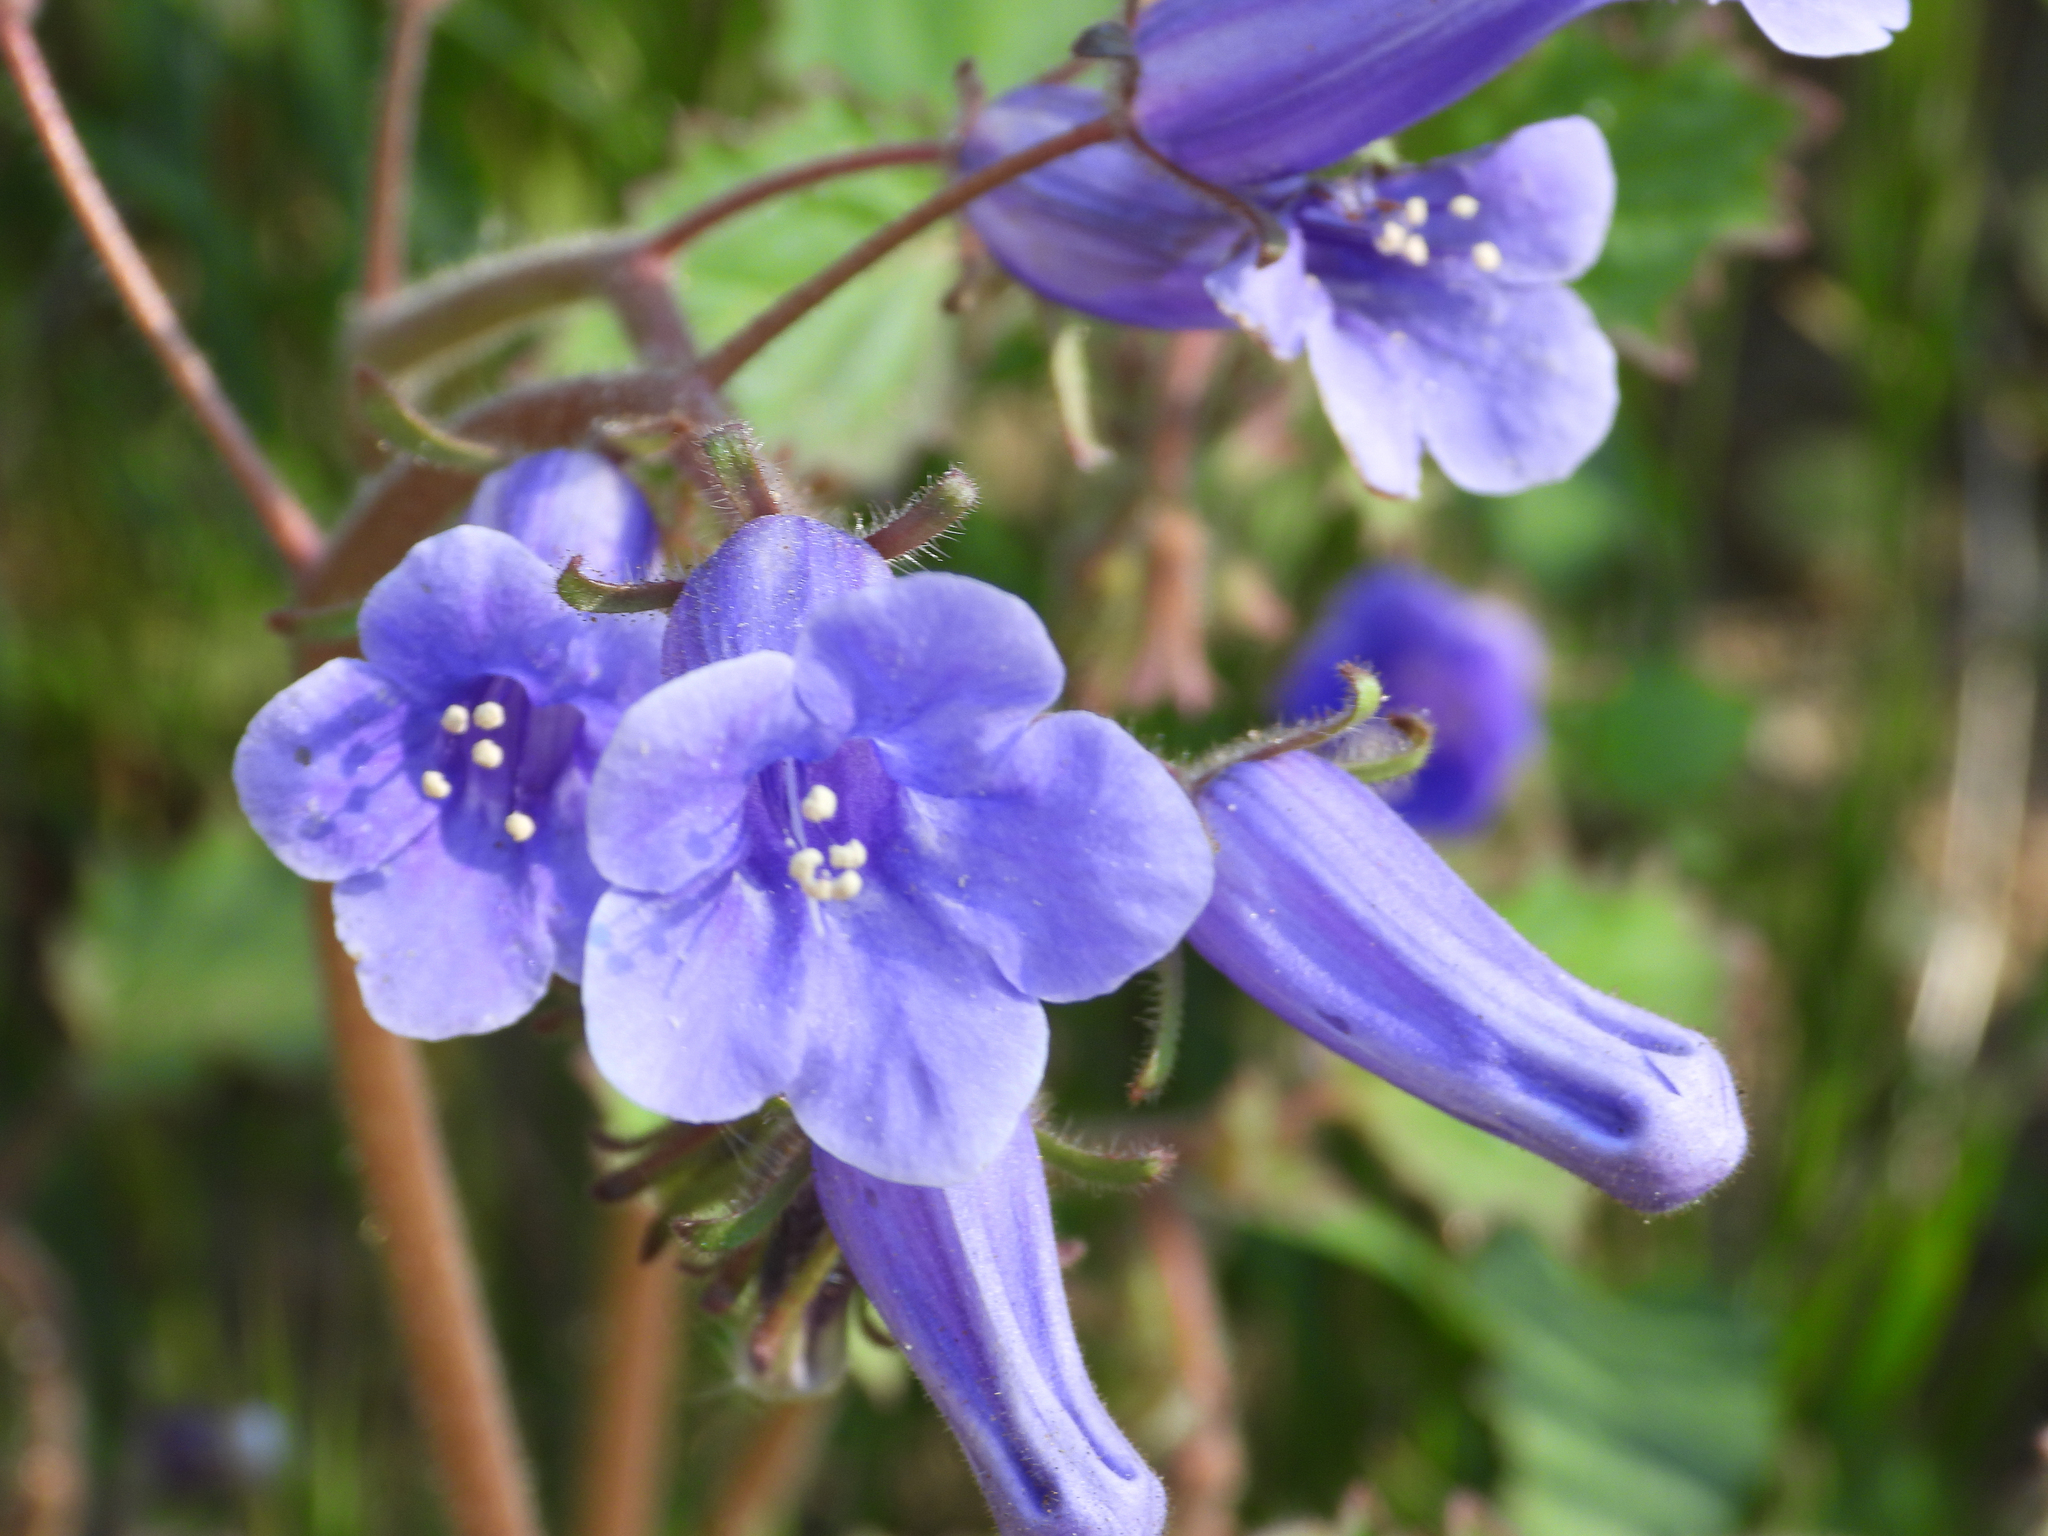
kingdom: Plantae
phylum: Tracheophyta
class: Magnoliopsida
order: Boraginales
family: Hydrophyllaceae
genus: Phacelia
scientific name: Phacelia minor
